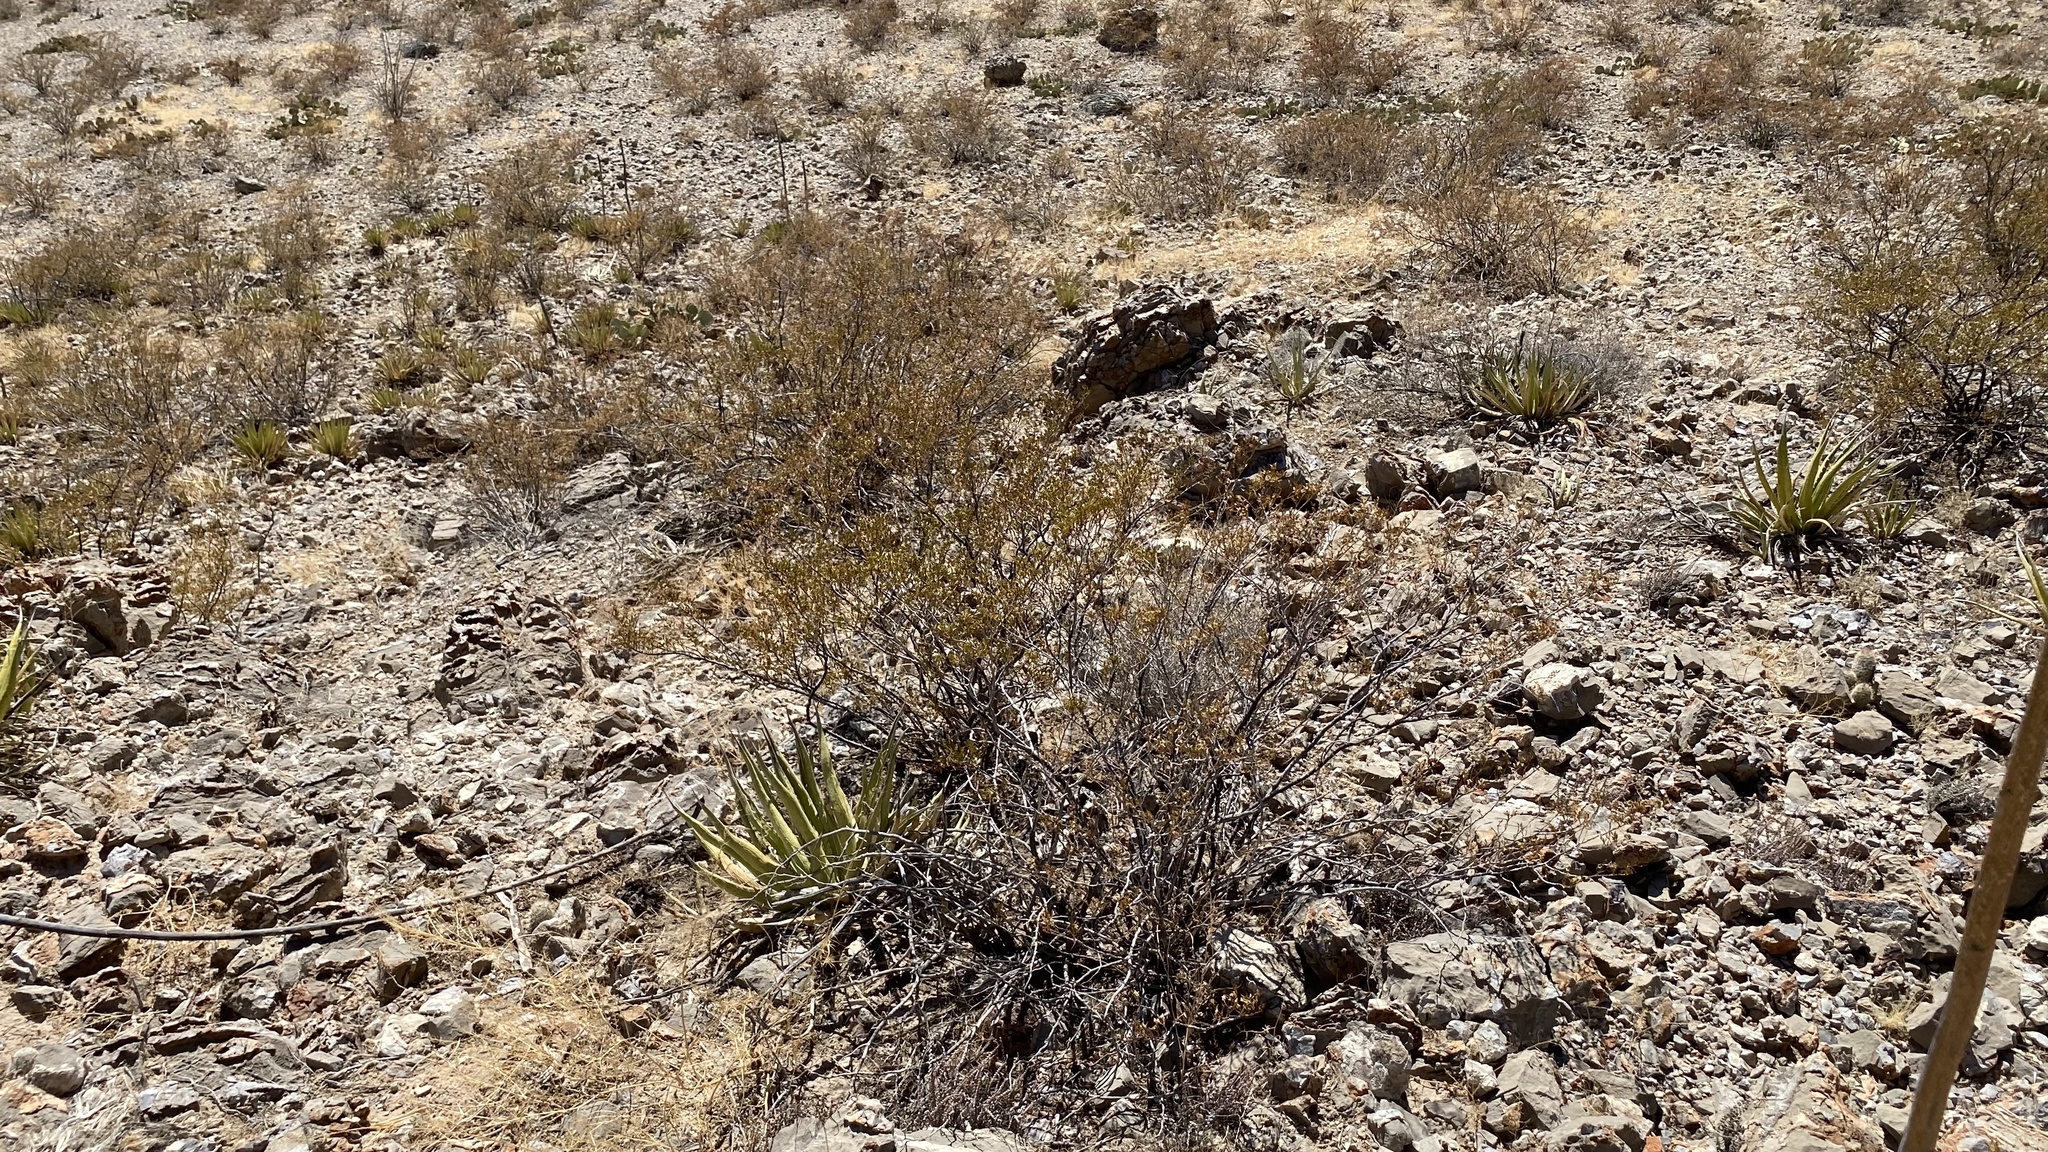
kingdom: Plantae
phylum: Tracheophyta
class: Magnoliopsida
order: Zygophyllales
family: Zygophyllaceae
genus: Larrea
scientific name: Larrea tridentata
